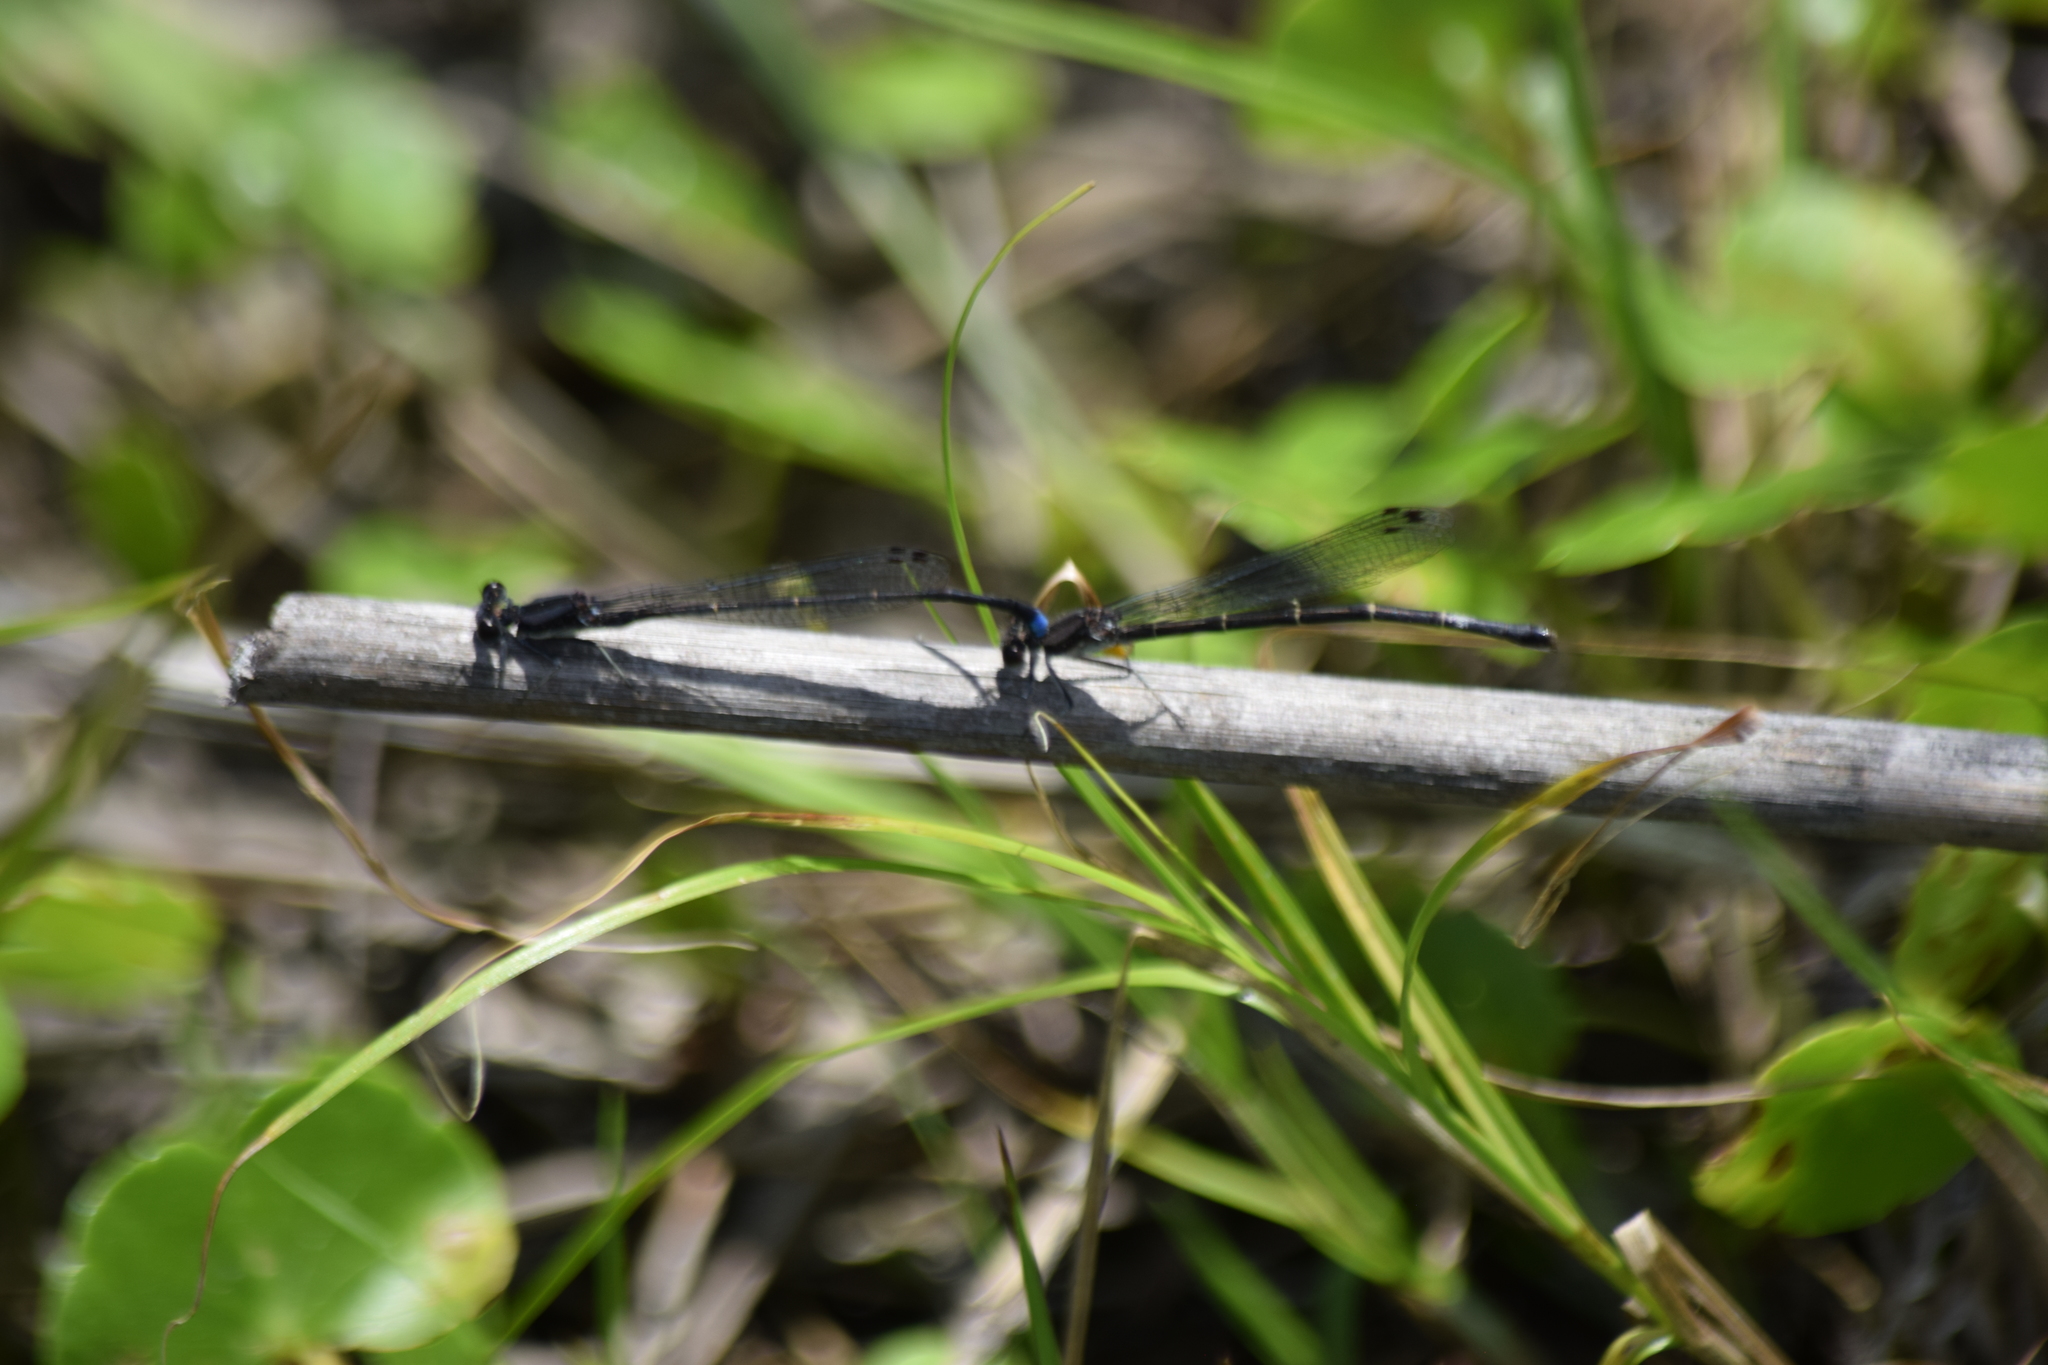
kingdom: Animalia
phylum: Arthropoda
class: Insecta
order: Odonata
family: Coenagrionidae
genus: Argia
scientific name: Argia tibialis
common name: Blue-tipped dancer
